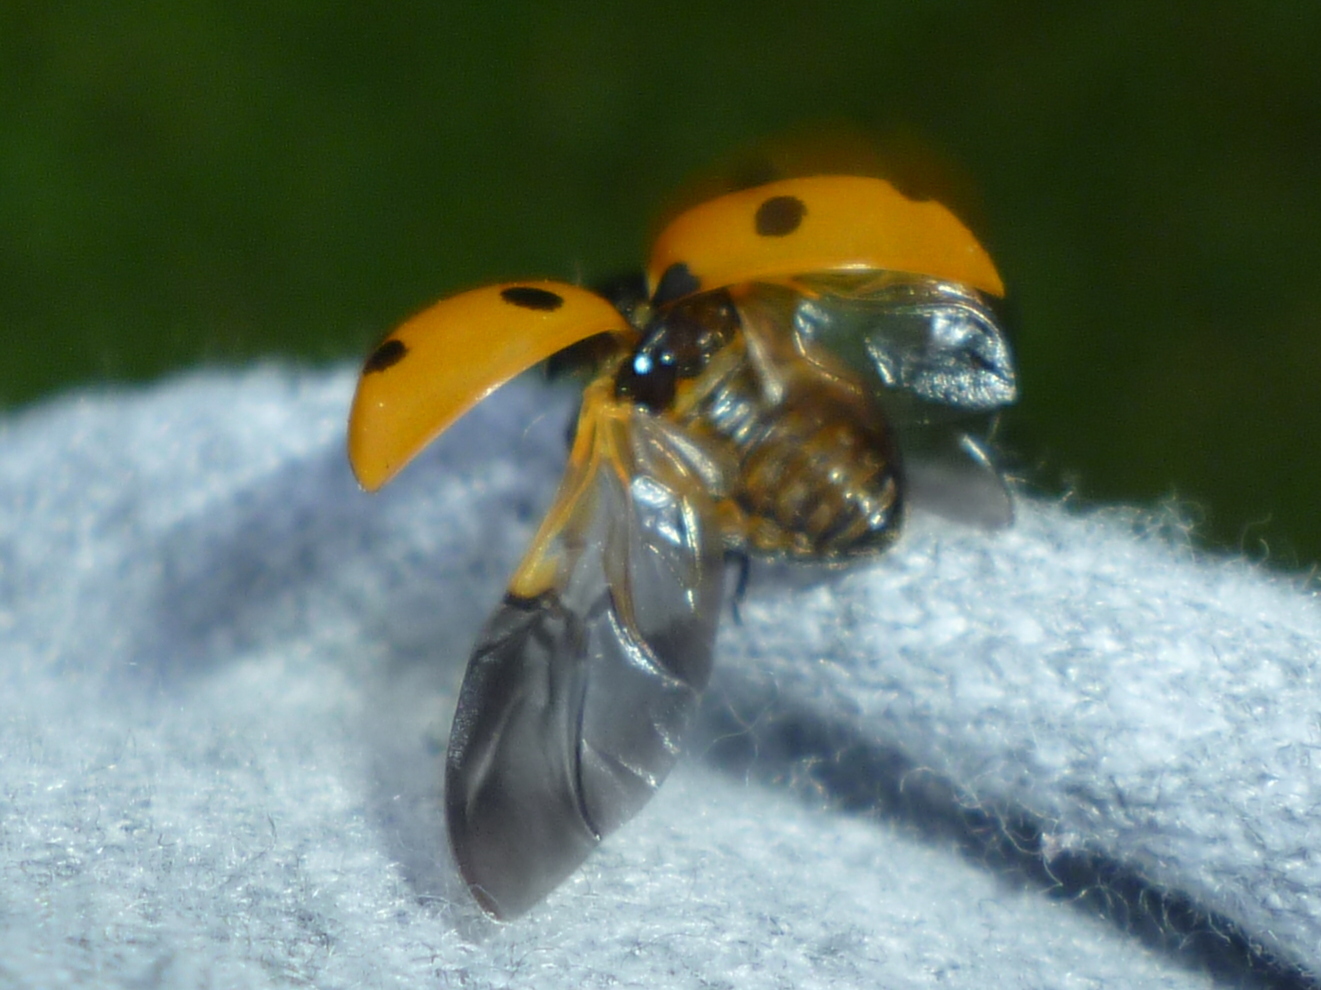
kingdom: Animalia
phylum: Arthropoda
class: Insecta
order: Coleoptera
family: Coccinellidae
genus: Coccinella
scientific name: Coccinella septempunctata
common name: Sevenspotted lady beetle
